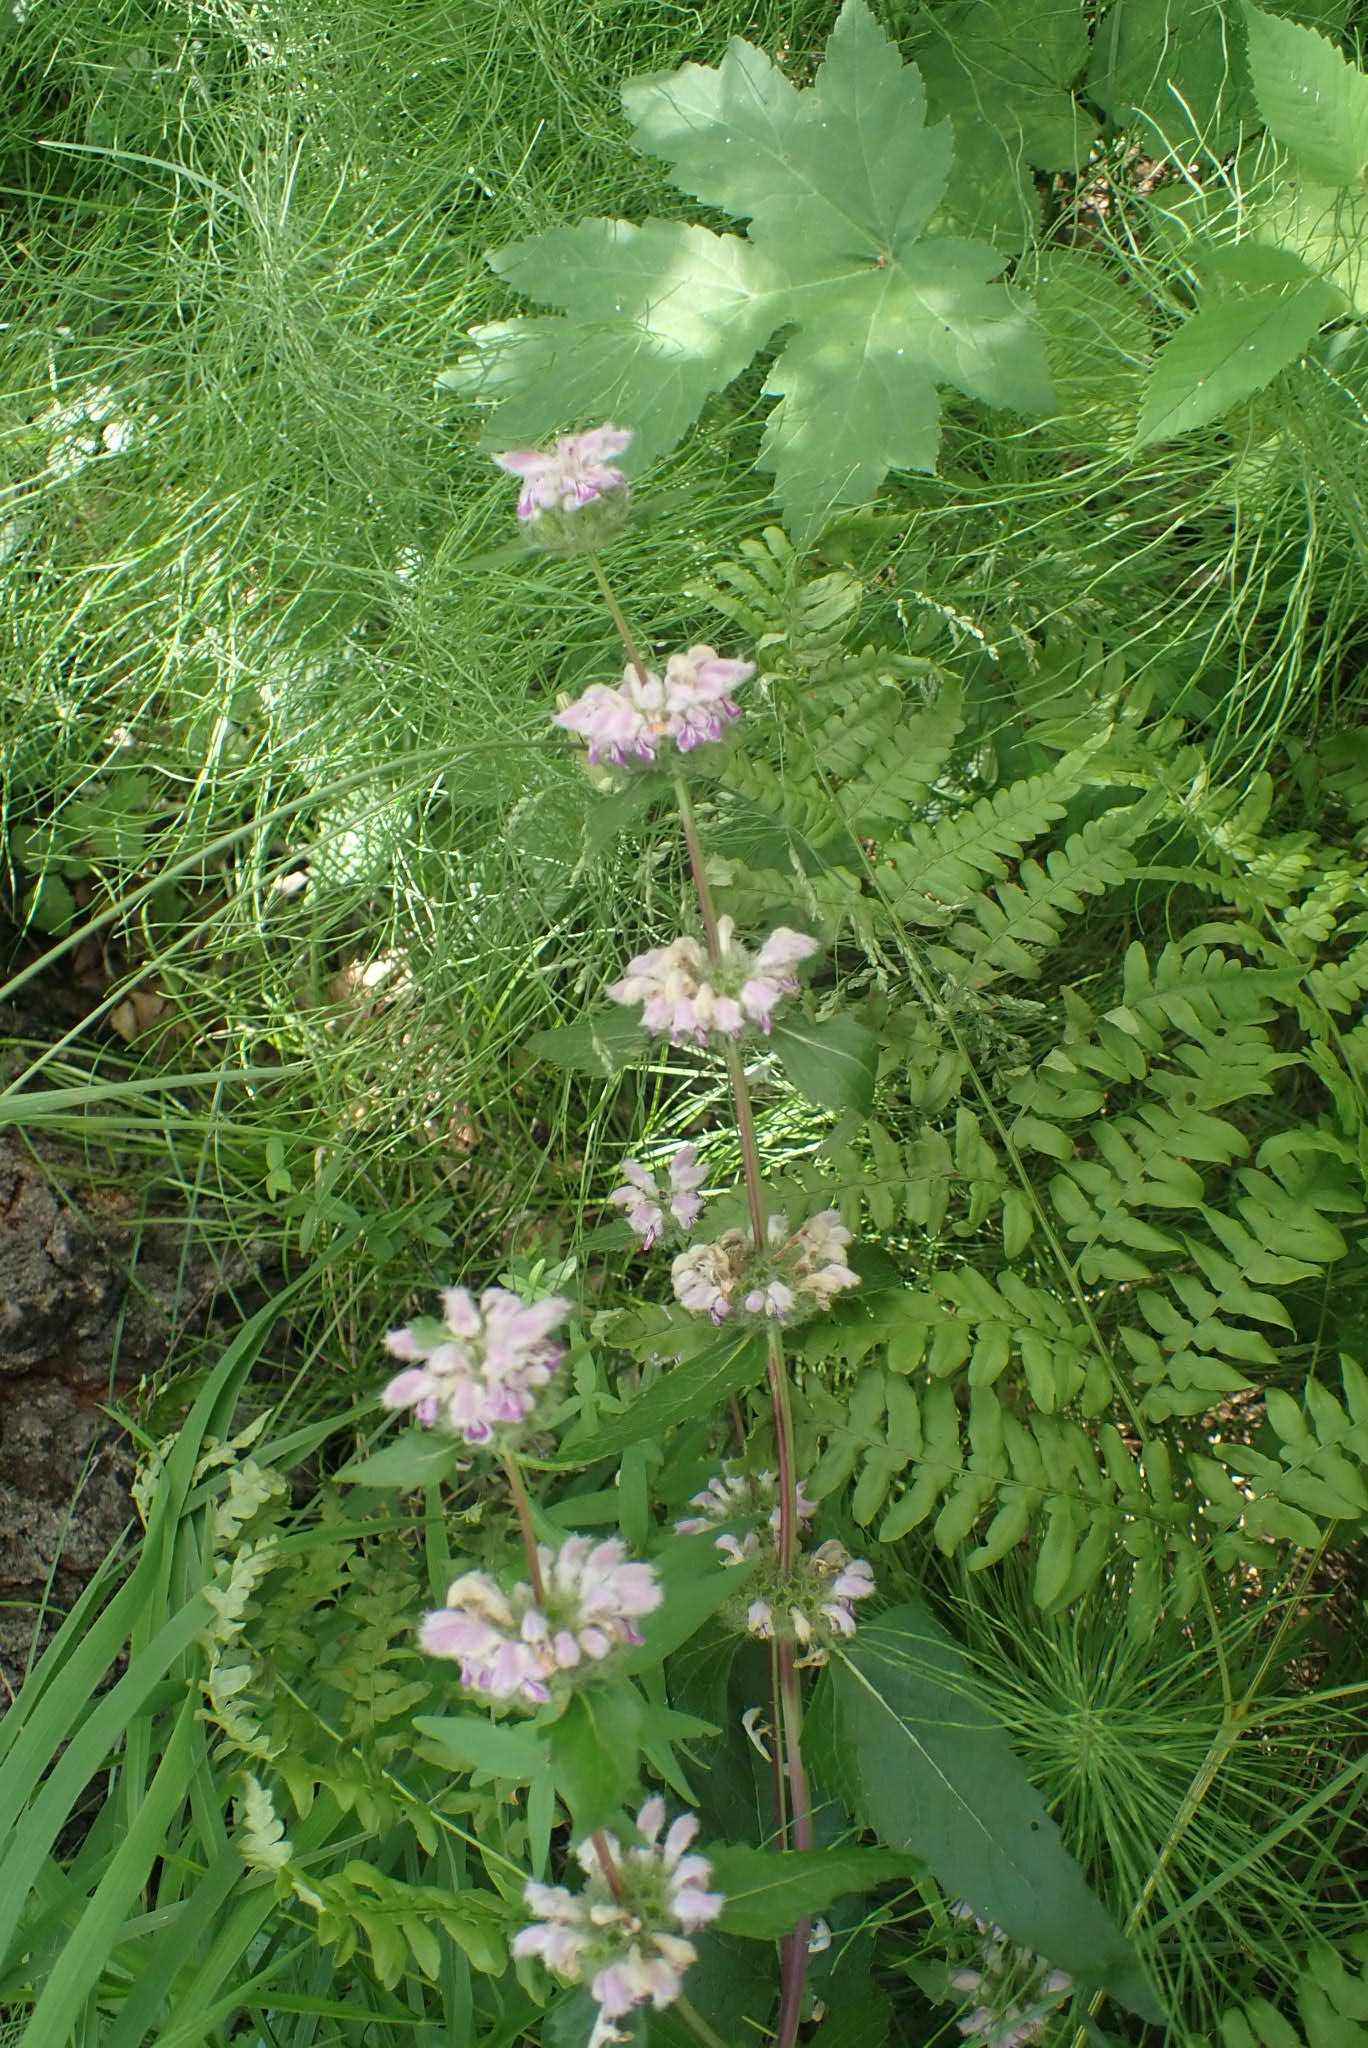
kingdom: Plantae
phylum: Tracheophyta
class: Magnoliopsida
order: Lamiales
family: Lamiaceae
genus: Phlomoides
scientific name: Phlomoides tuberosa
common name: Tuberous jerusalem sage
